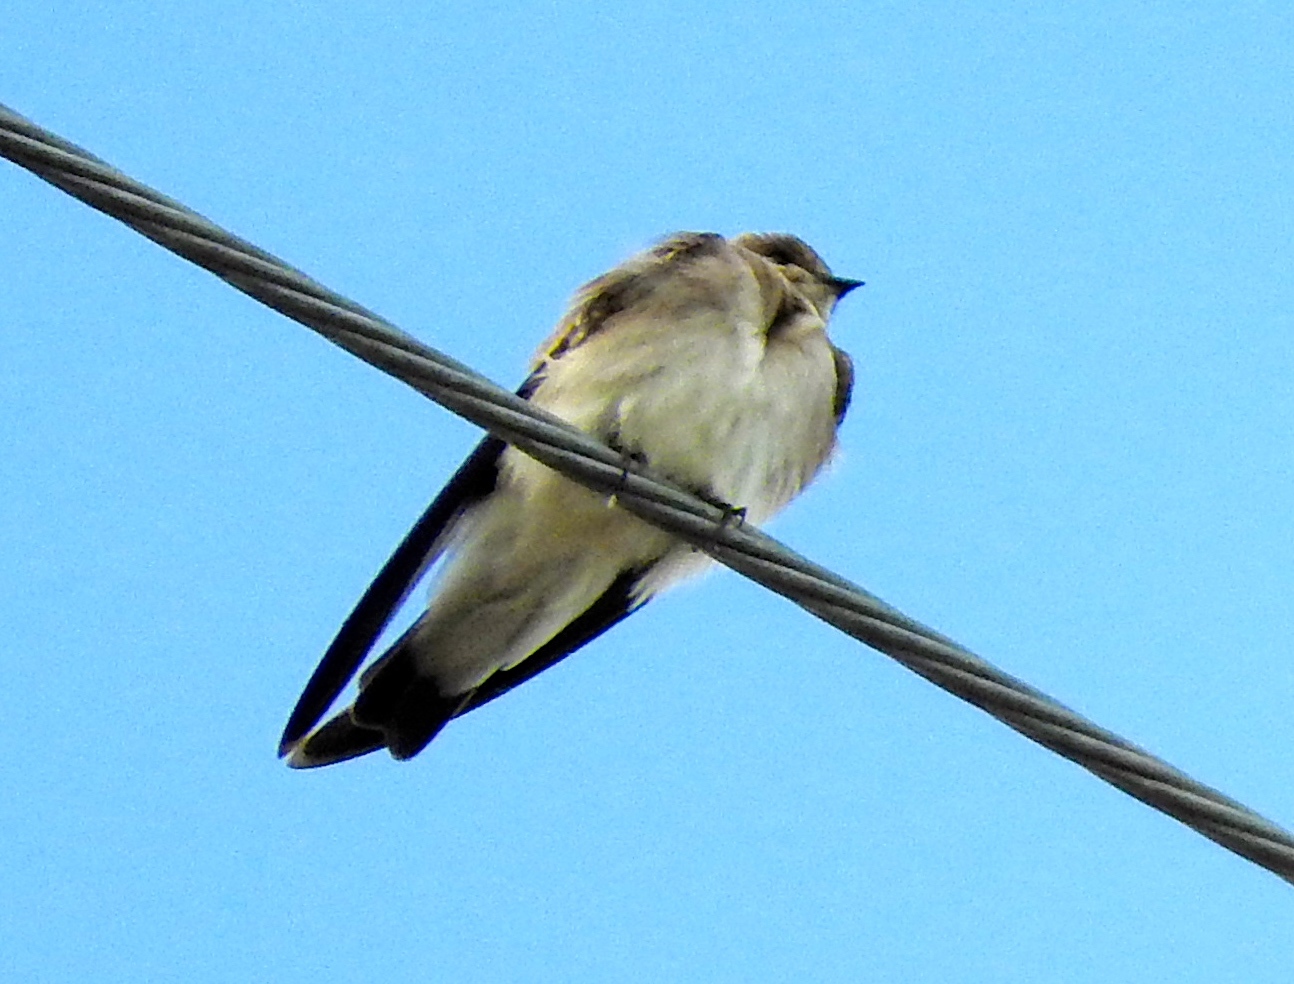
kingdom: Animalia
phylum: Chordata
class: Aves
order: Passeriformes
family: Hirundinidae
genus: Stelgidopteryx
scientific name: Stelgidopteryx serripennis
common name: Northern rough-winged swallow
